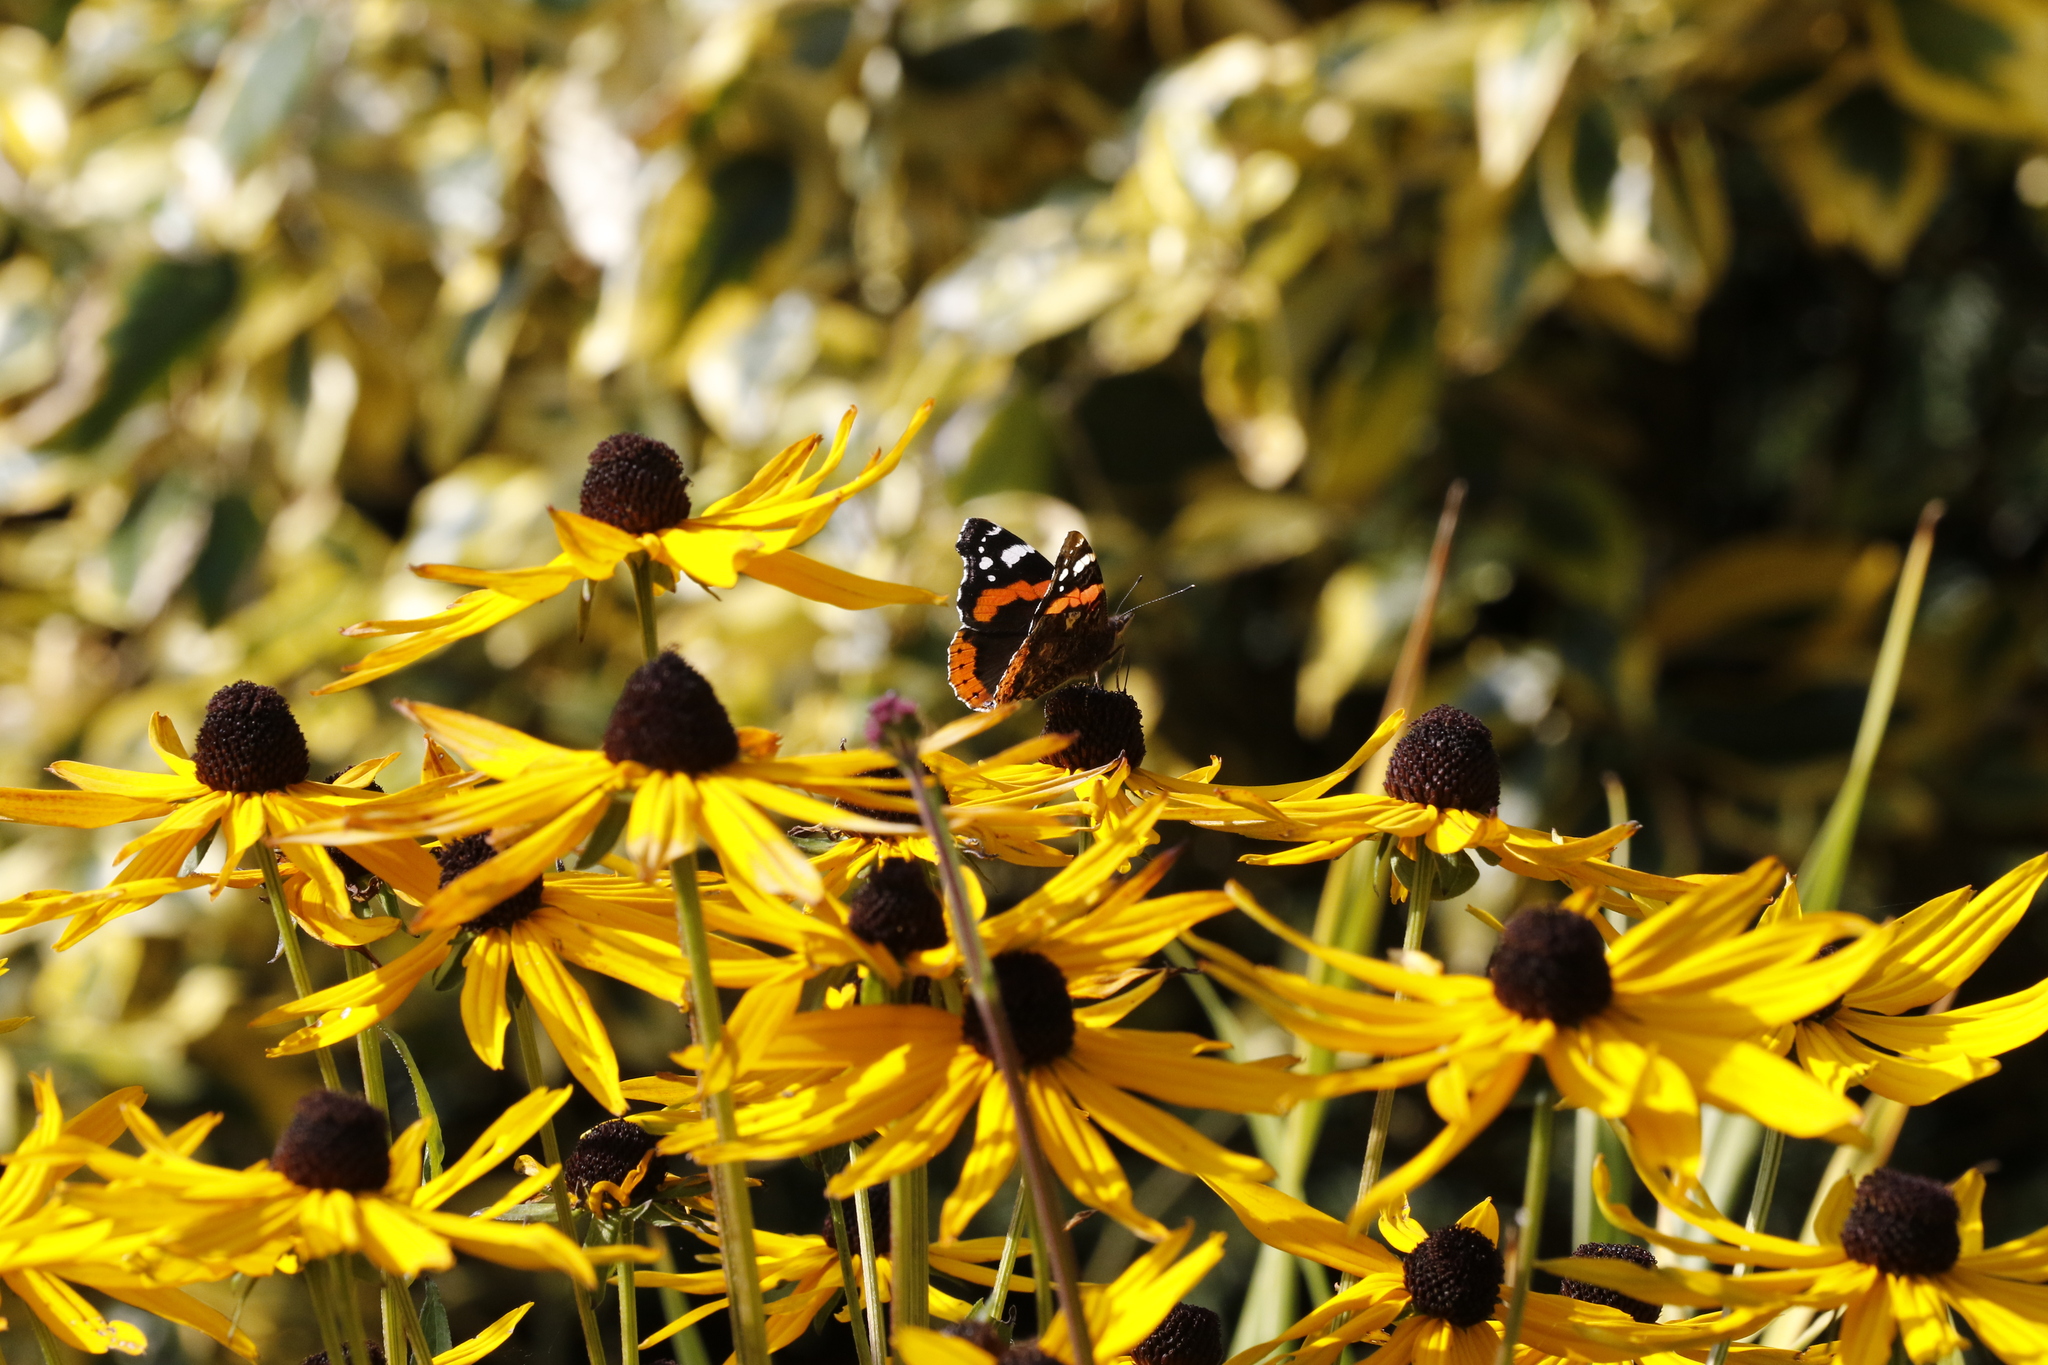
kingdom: Animalia
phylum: Arthropoda
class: Insecta
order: Lepidoptera
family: Nymphalidae
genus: Vanessa
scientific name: Vanessa atalanta
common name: Red admiral
